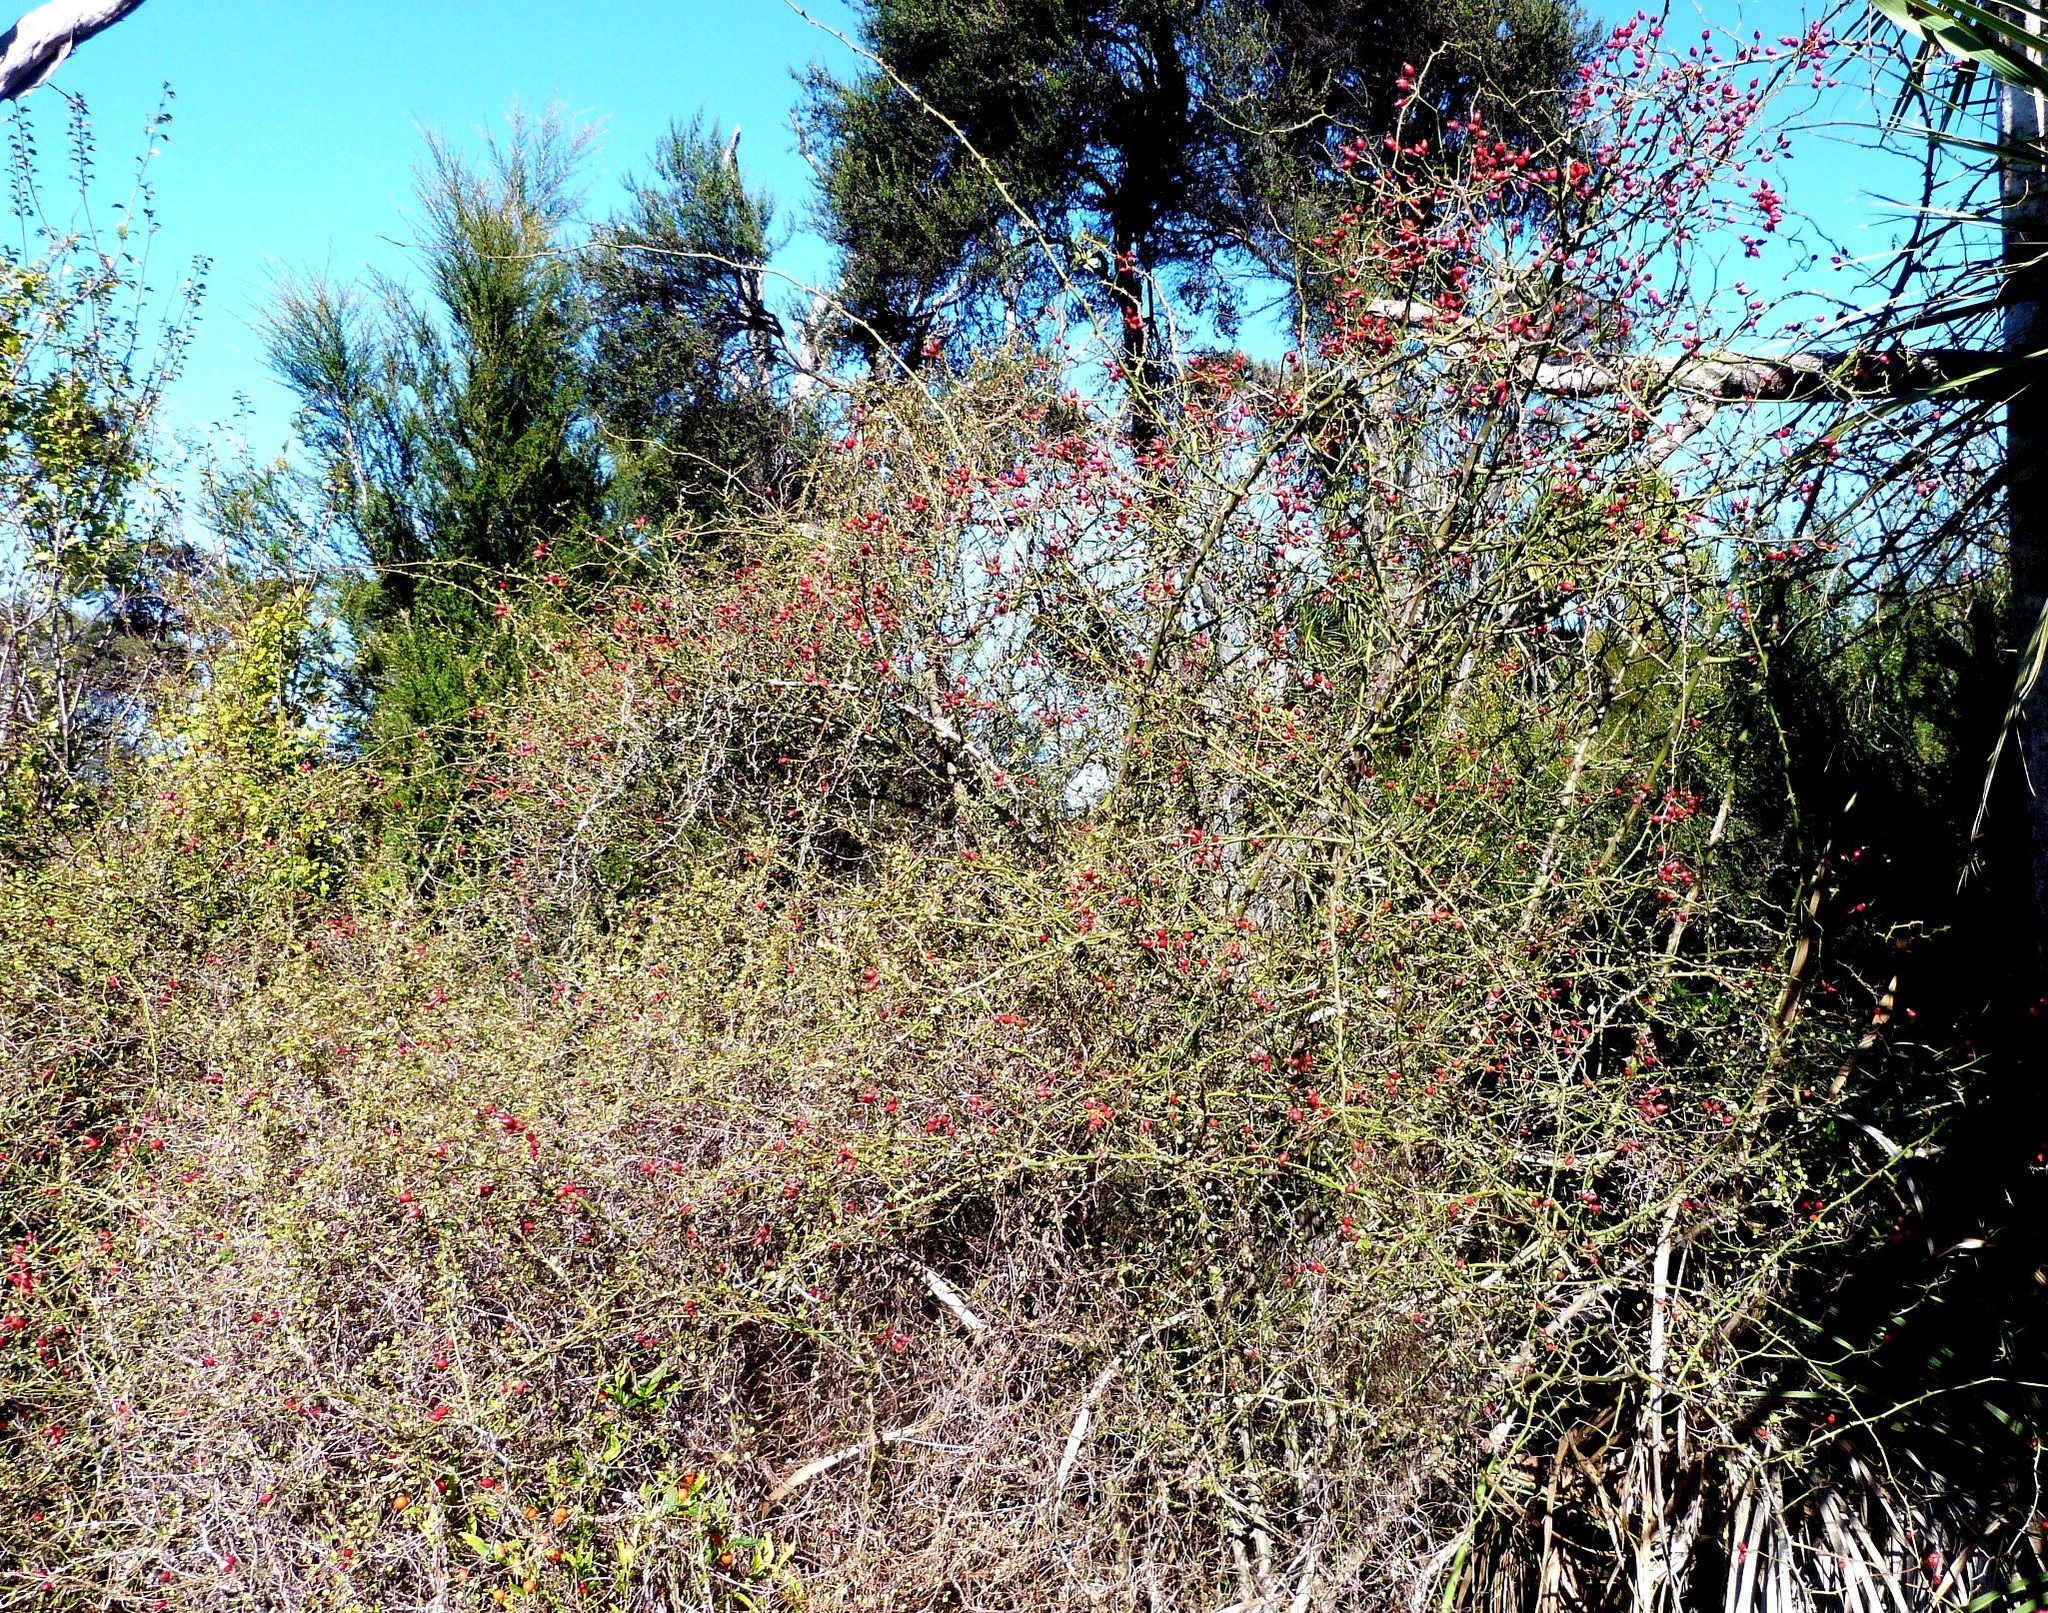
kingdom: Plantae
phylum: Tracheophyta
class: Magnoliopsida
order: Rosales
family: Rosaceae
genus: Rosa
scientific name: Rosa rubiginosa
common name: Sweet-briar
